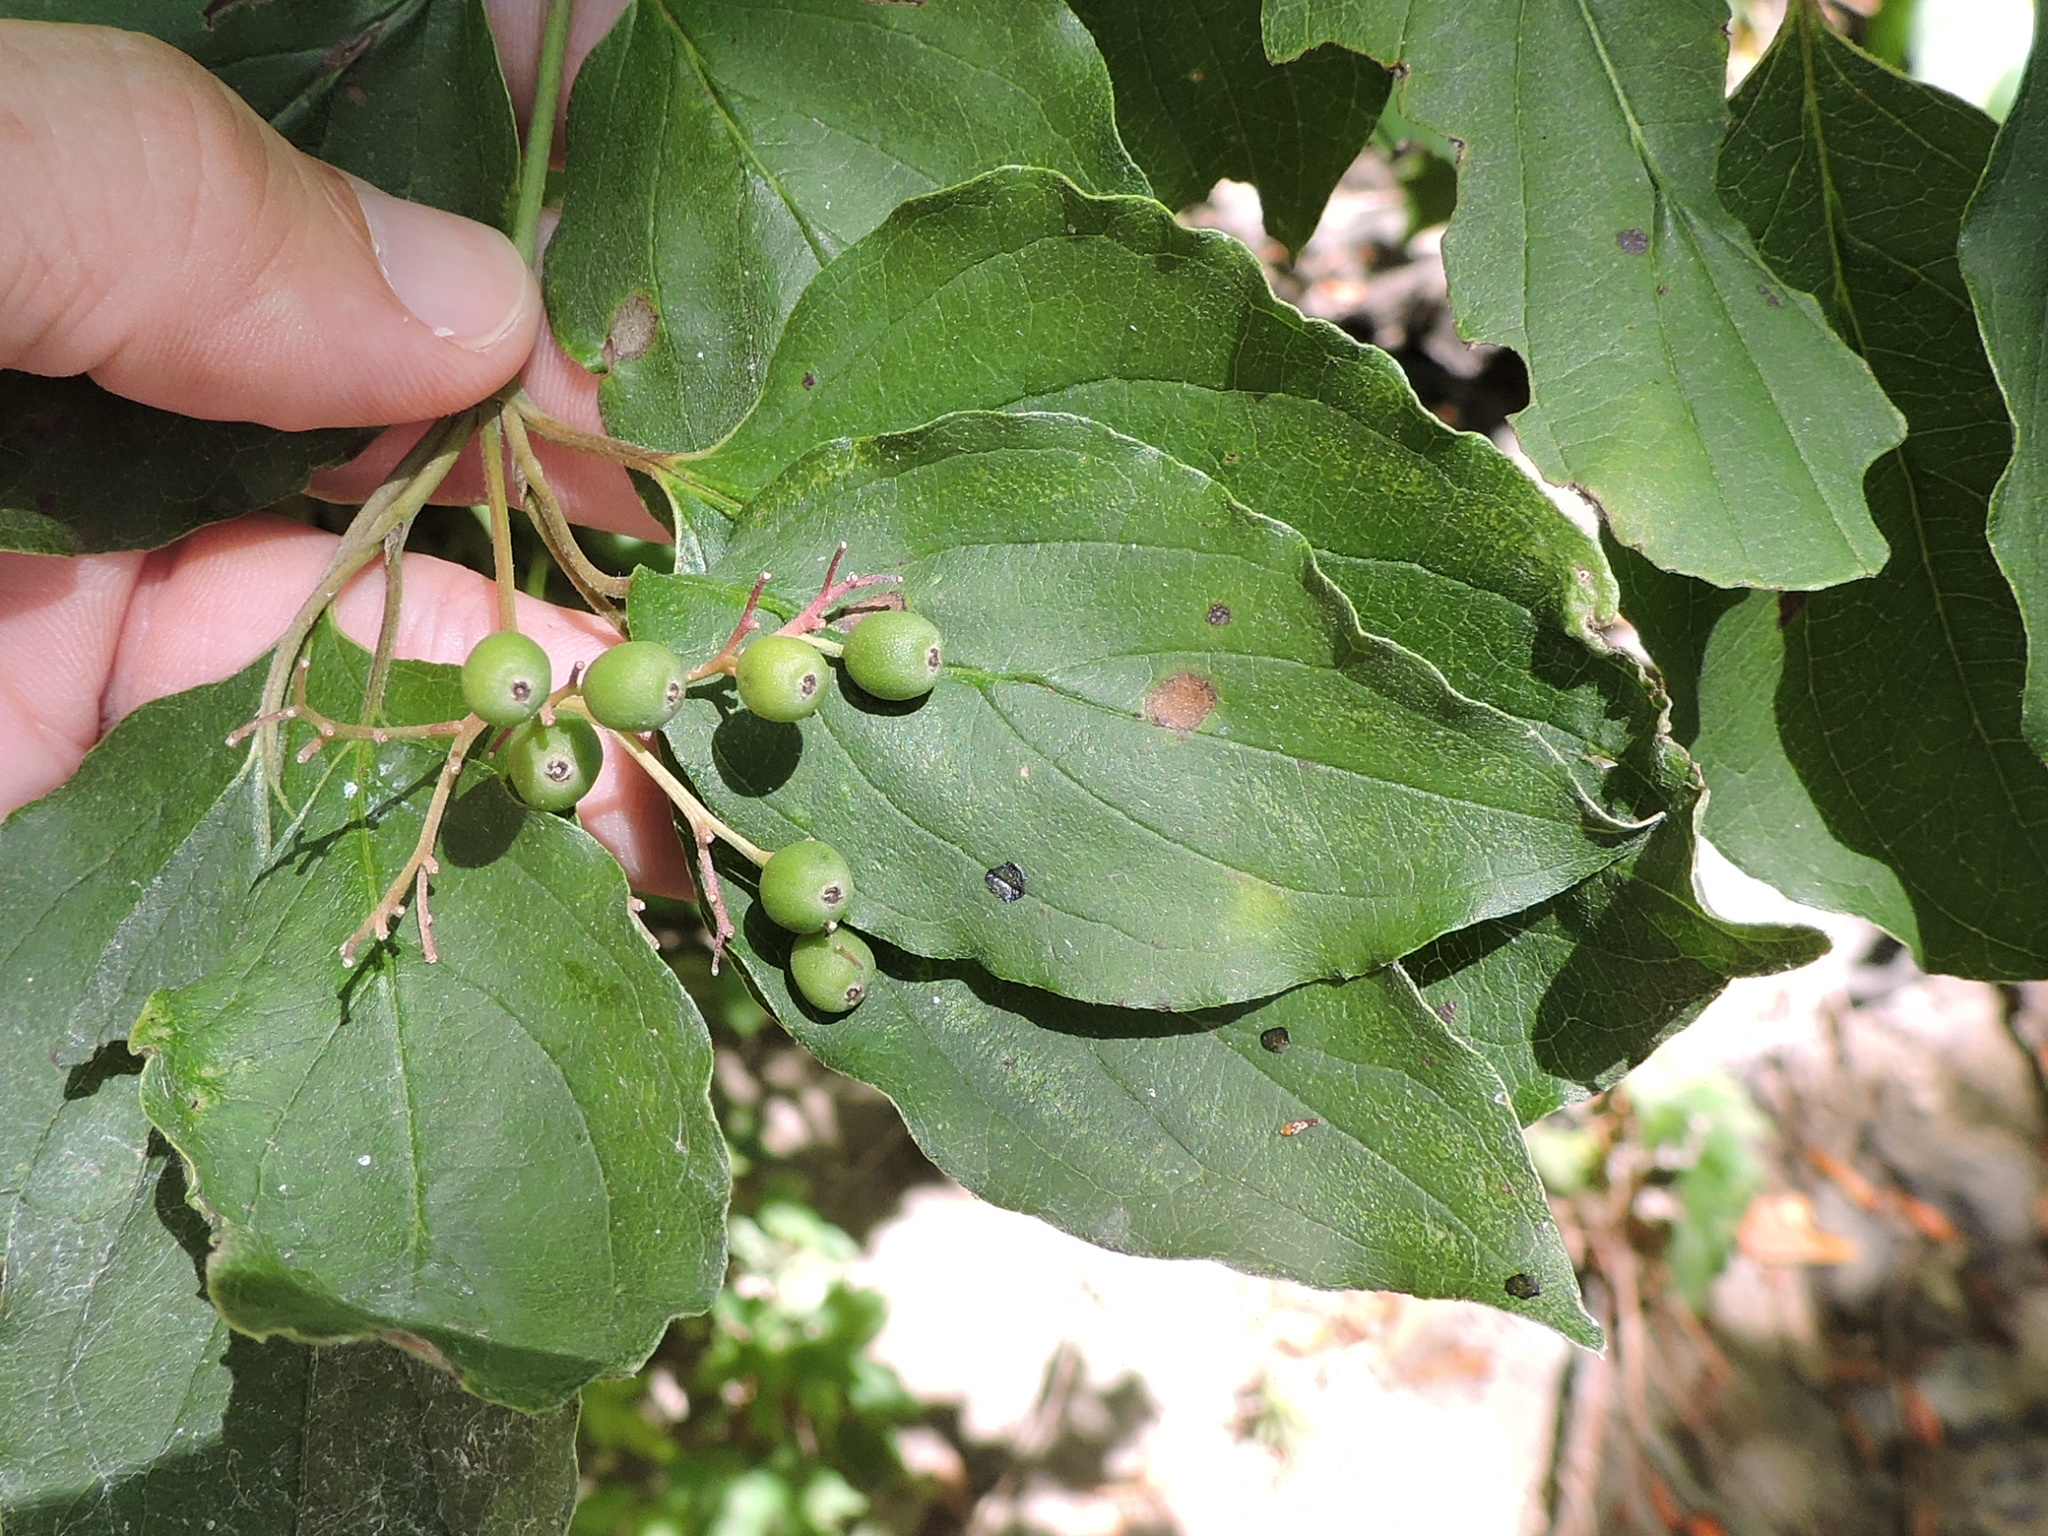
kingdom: Plantae
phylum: Tracheophyta
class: Magnoliopsida
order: Cornales
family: Cornaceae
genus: Cornus
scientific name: Cornus drummondii
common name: Rough-leaf dogwood
